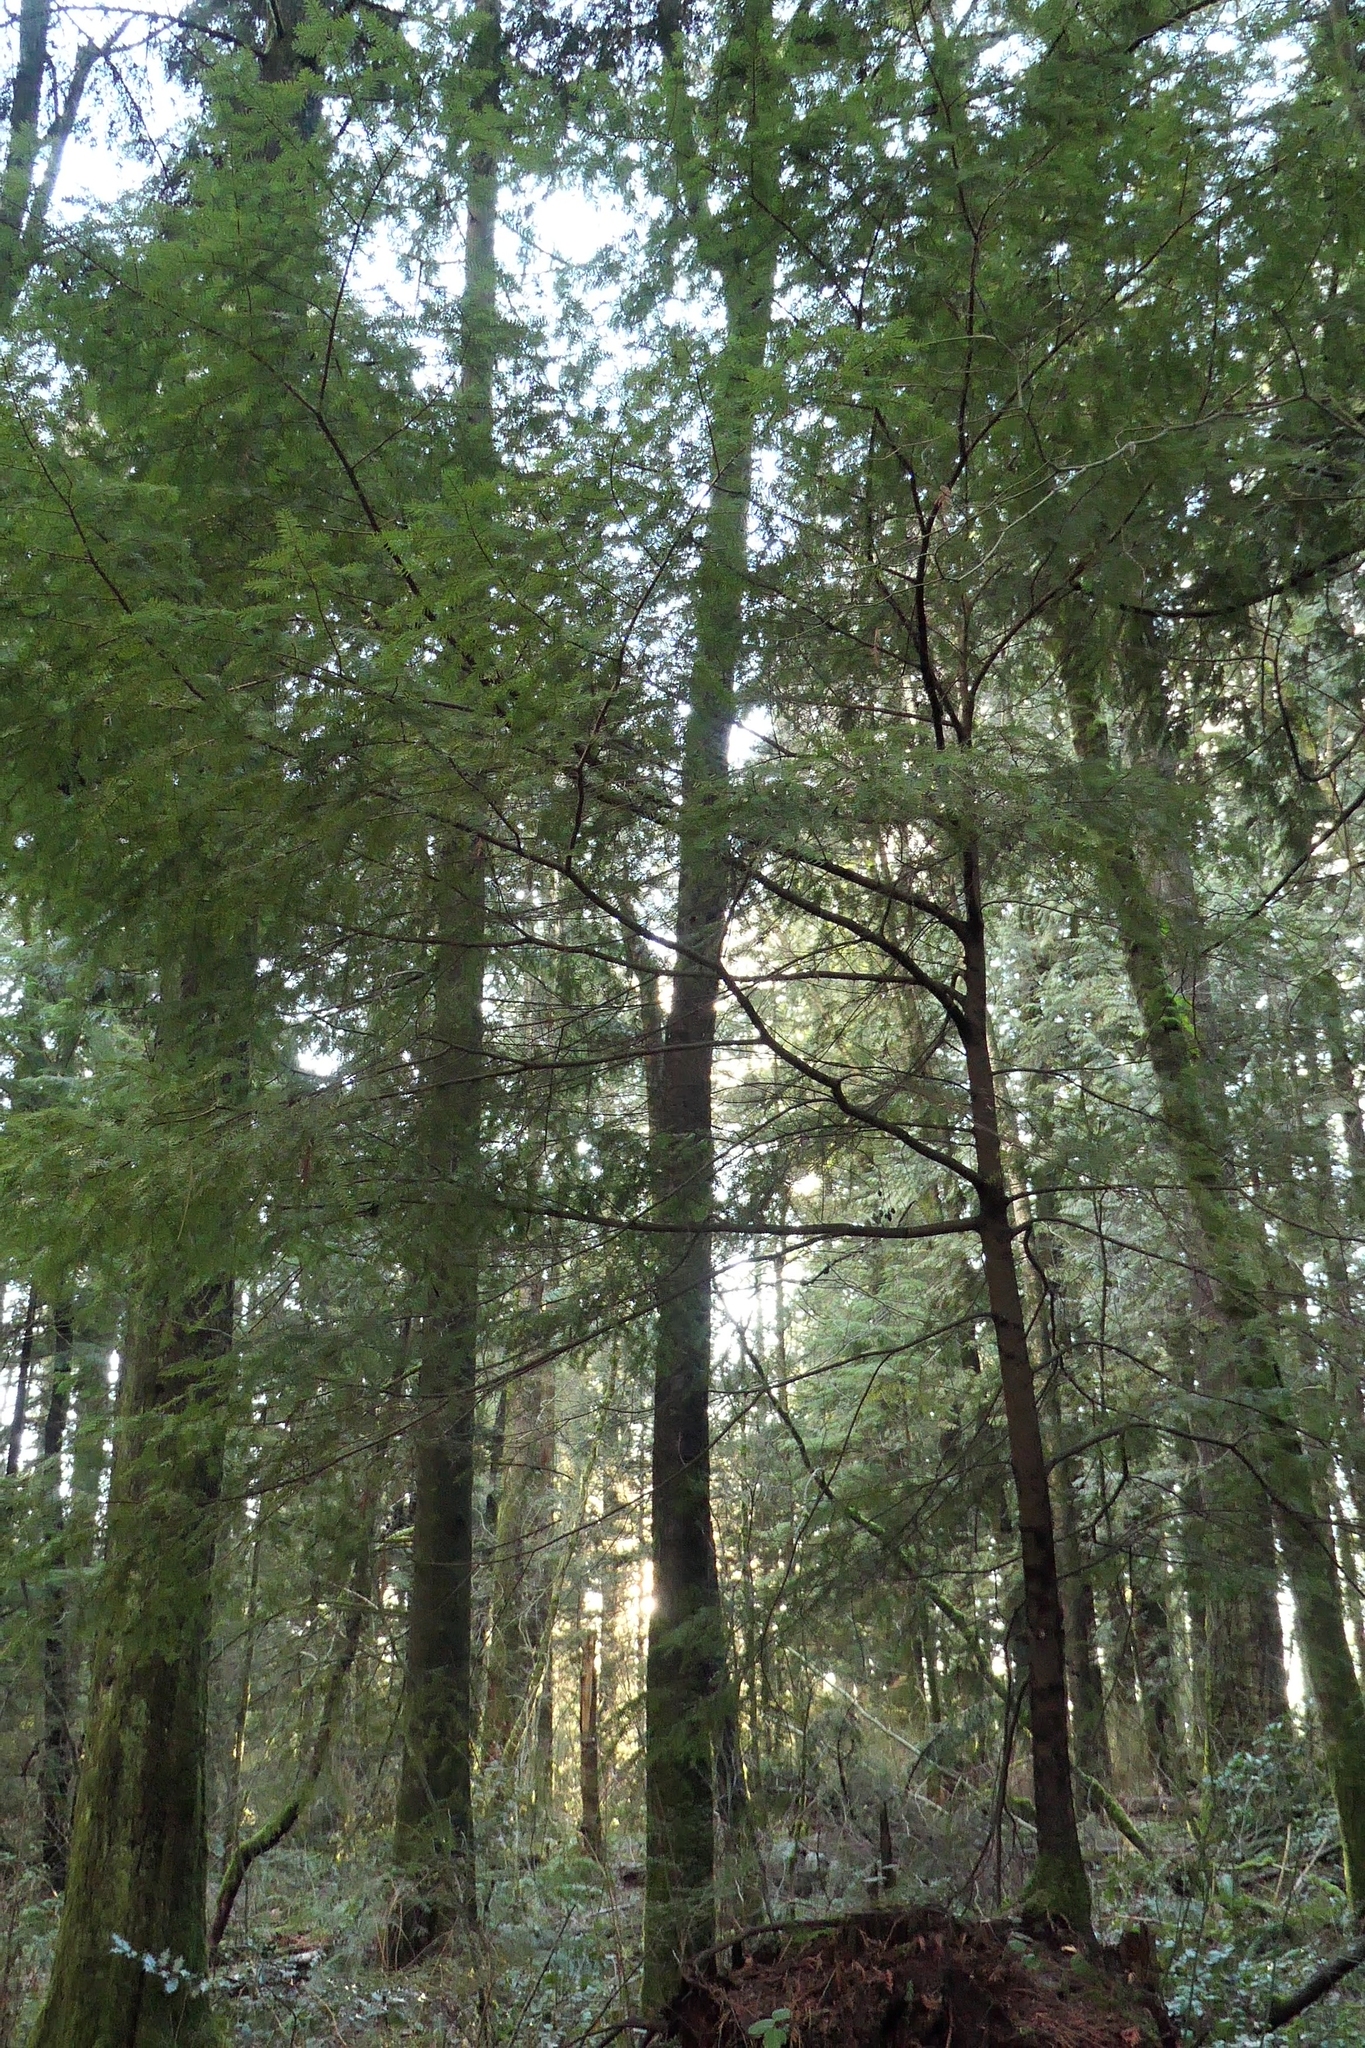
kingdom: Plantae
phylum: Tracheophyta
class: Pinopsida
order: Pinales
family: Pinaceae
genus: Tsuga
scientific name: Tsuga heterophylla
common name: Western hemlock
